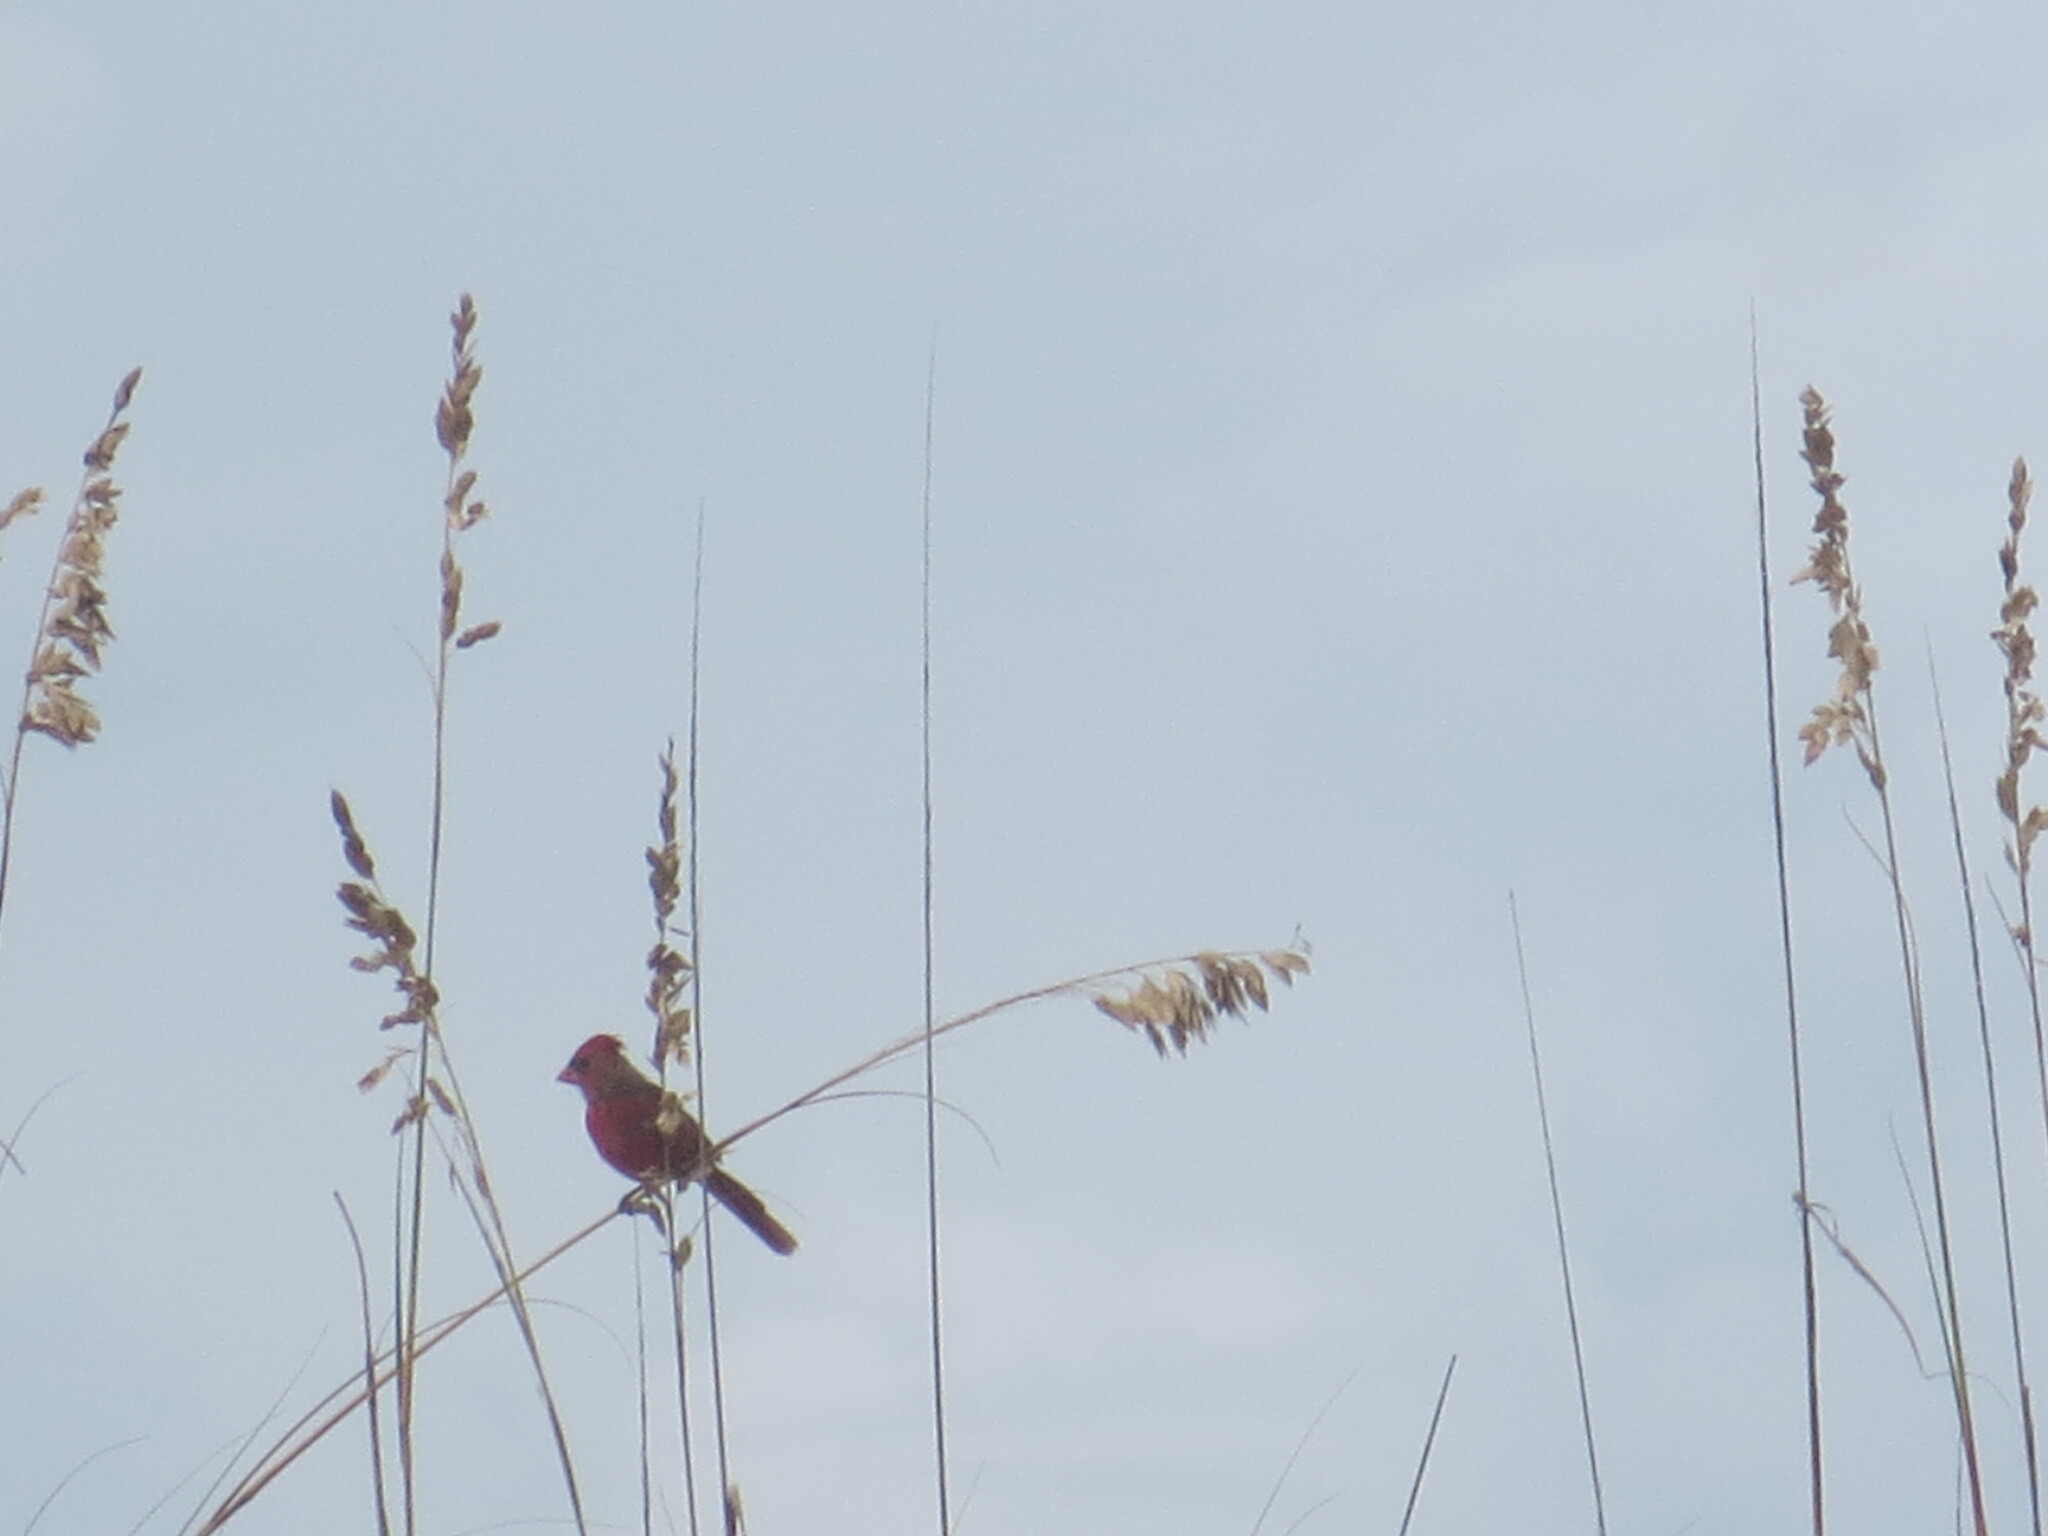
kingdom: Animalia
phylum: Chordata
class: Aves
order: Passeriformes
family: Cardinalidae
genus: Cardinalis
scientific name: Cardinalis cardinalis
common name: Northern cardinal
